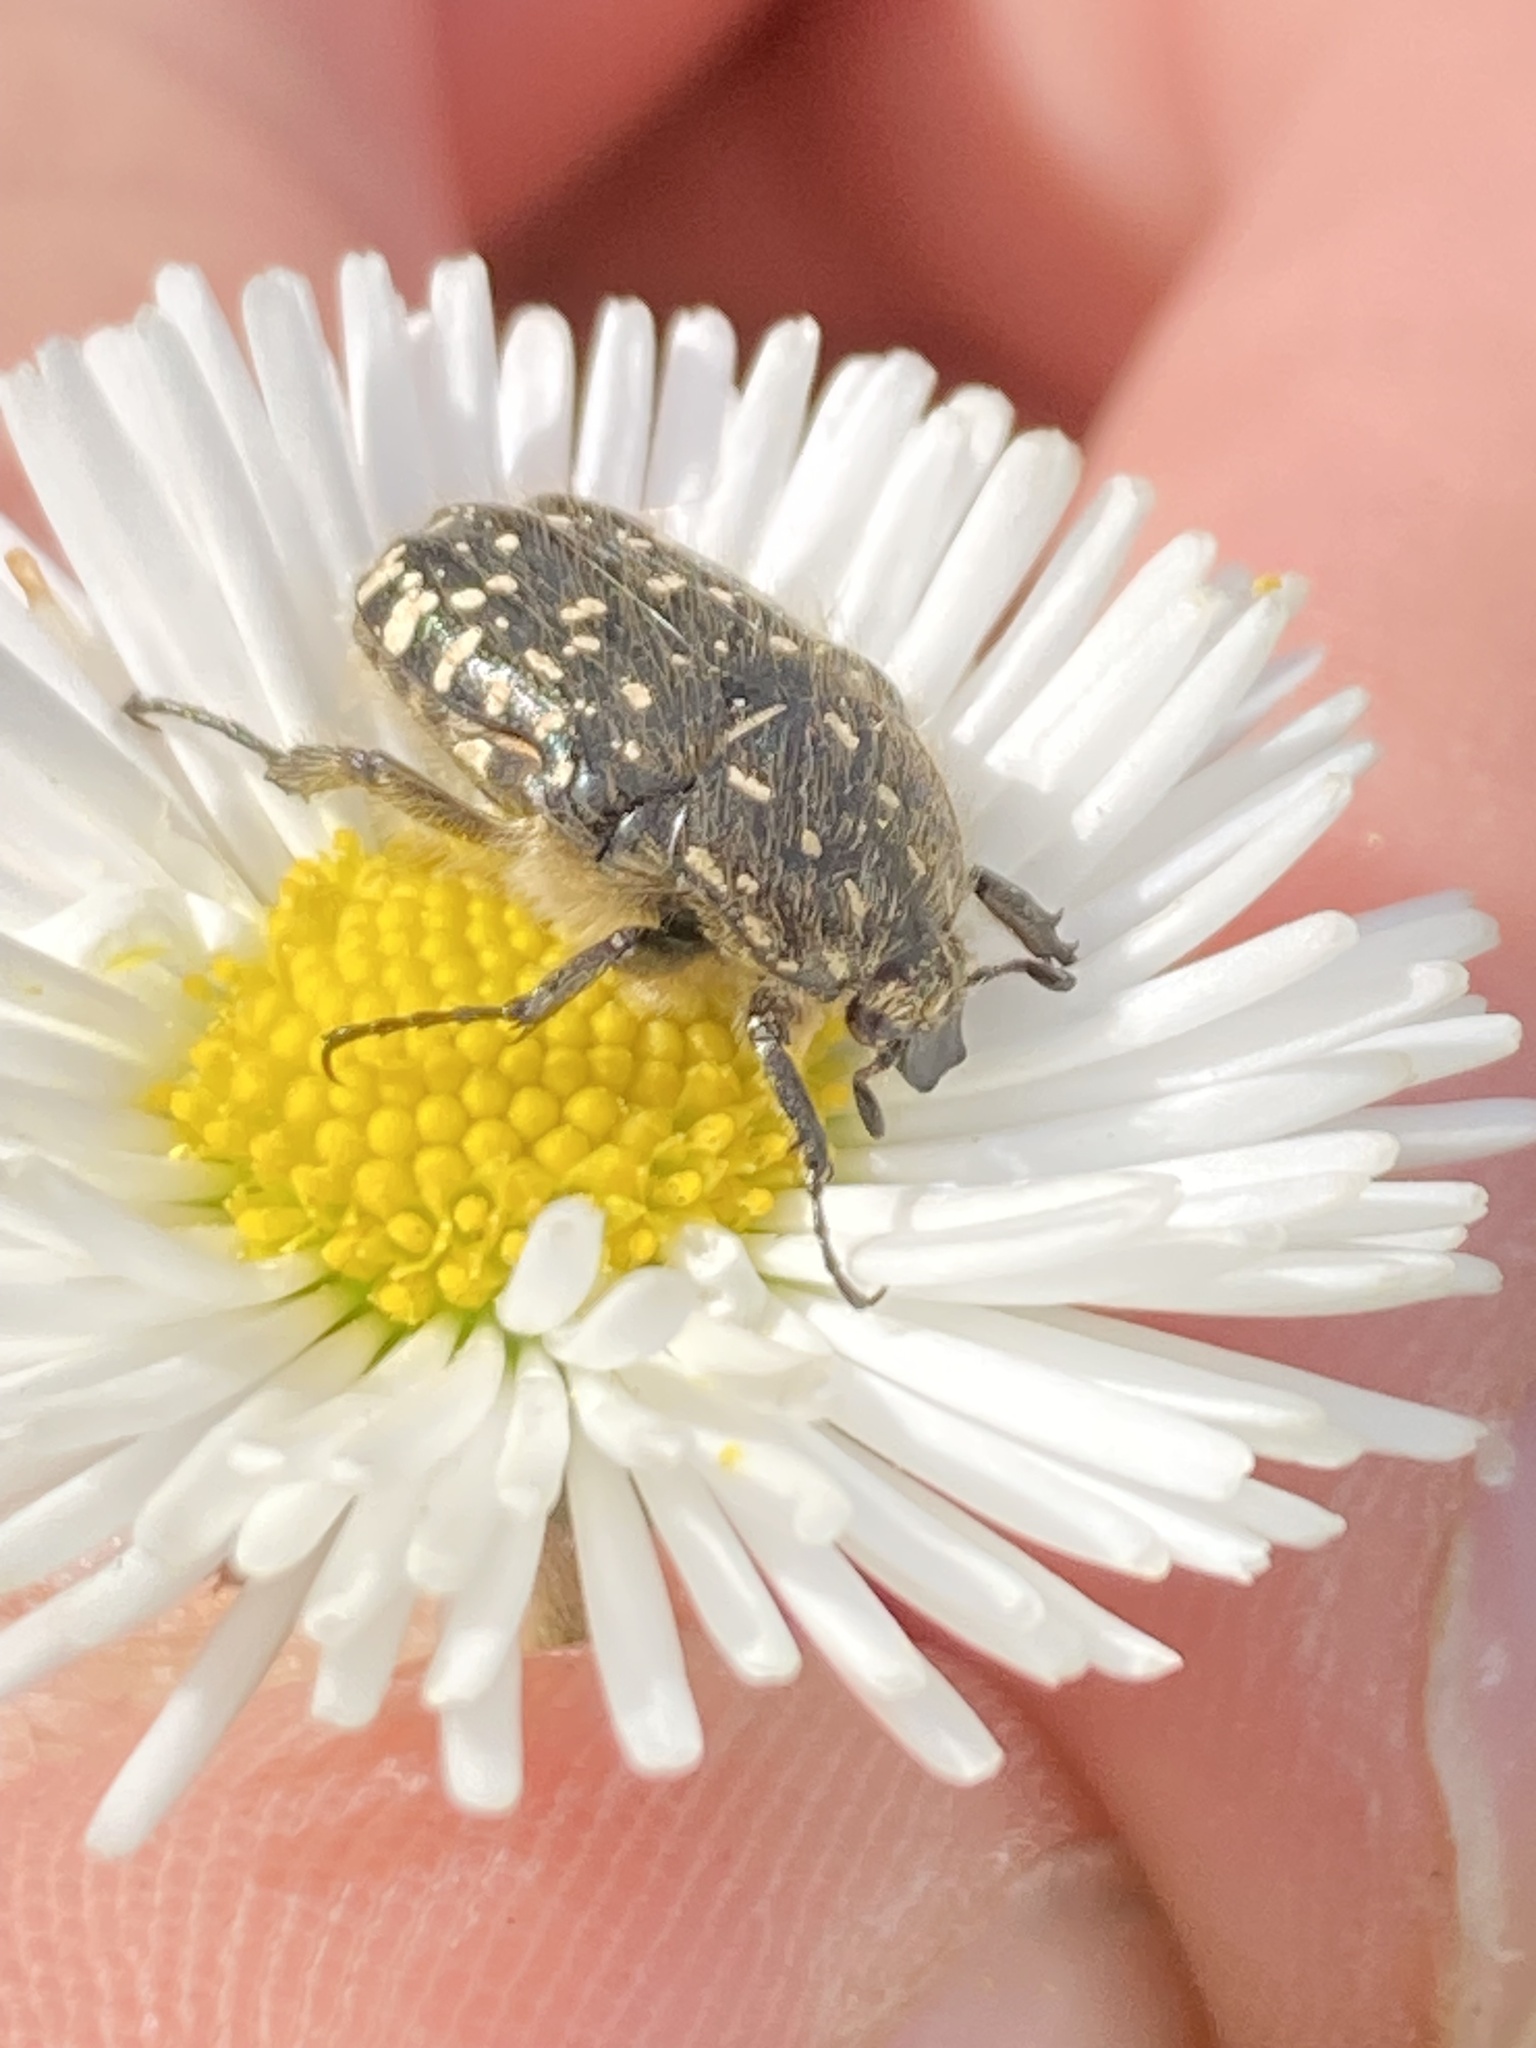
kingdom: Animalia
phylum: Arthropoda
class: Insecta
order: Coleoptera
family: Scarabaeidae
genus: Oxythyrea
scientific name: Oxythyrea funesta
